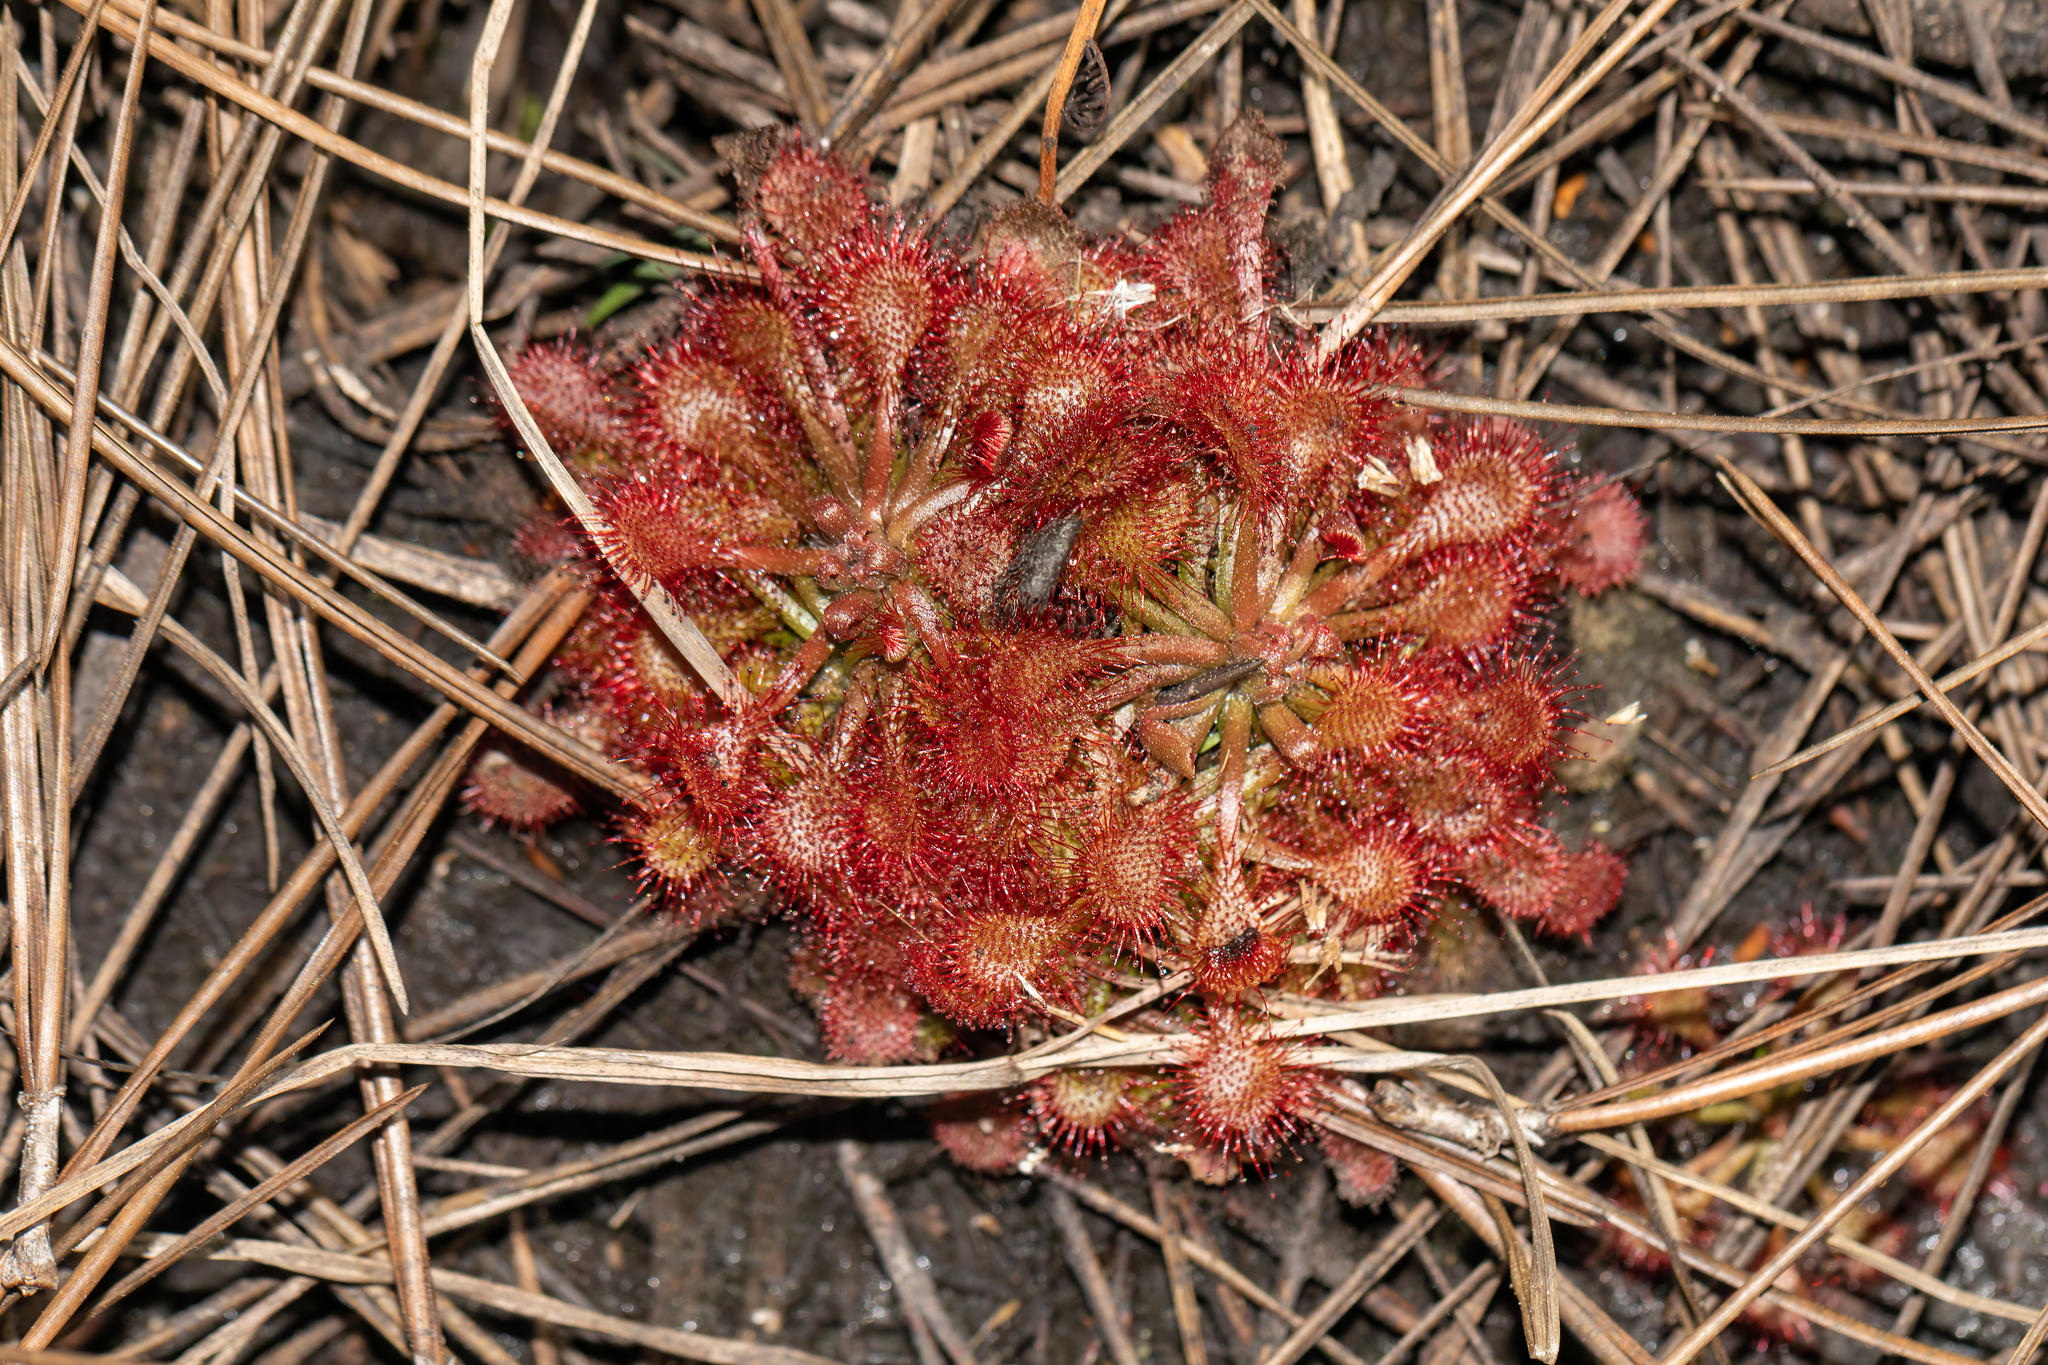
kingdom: Plantae
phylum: Tracheophyta
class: Magnoliopsida
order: Caryophyllales
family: Droseraceae
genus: Drosera
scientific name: Drosera capillaris
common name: Pink sundew
